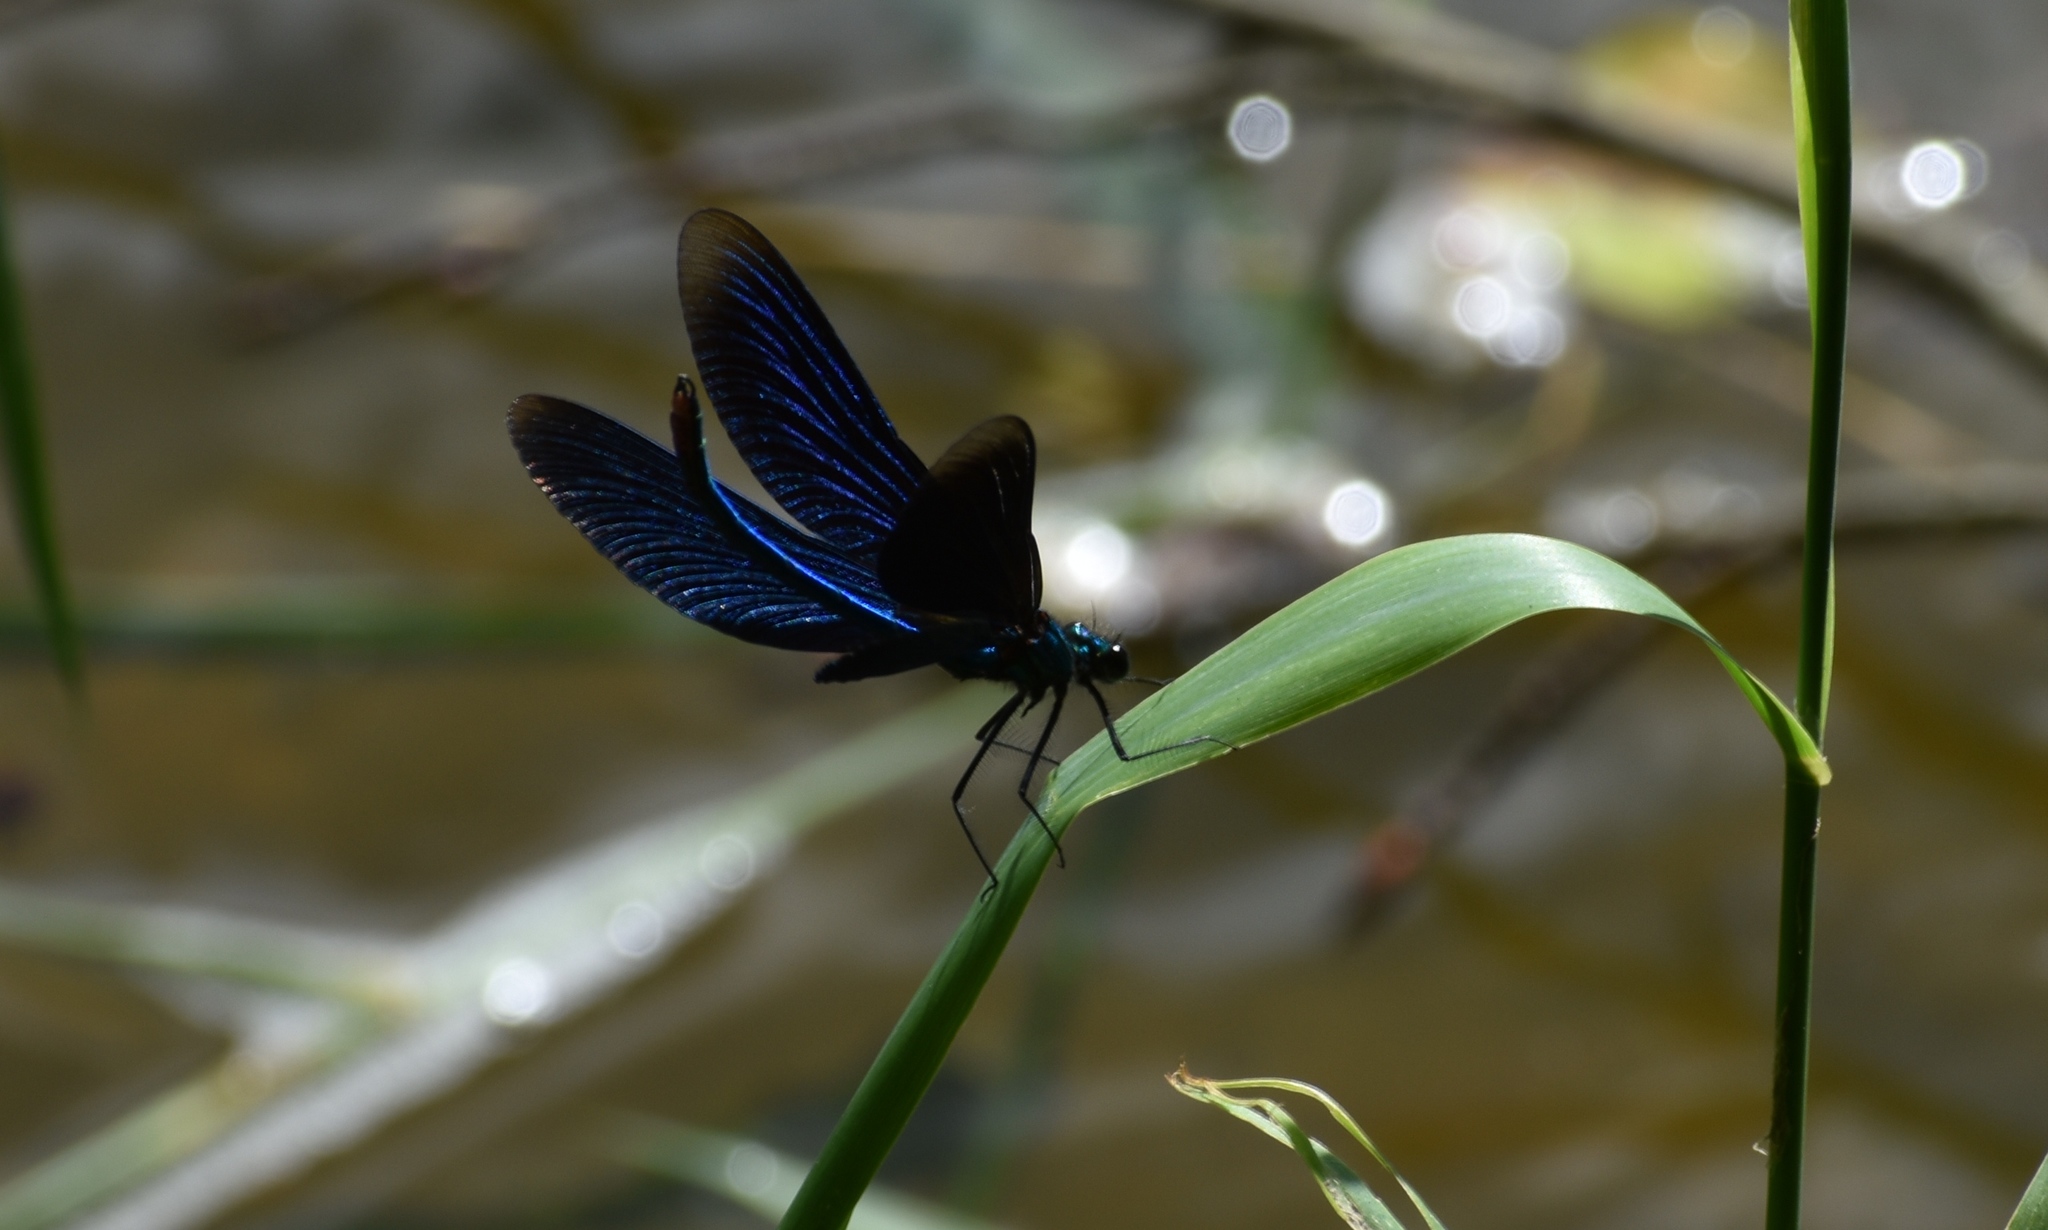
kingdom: Animalia
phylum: Arthropoda
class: Insecta
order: Odonata
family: Calopterygidae
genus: Calopteryx
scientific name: Calopteryx virgo
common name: Beautiful demoiselle
